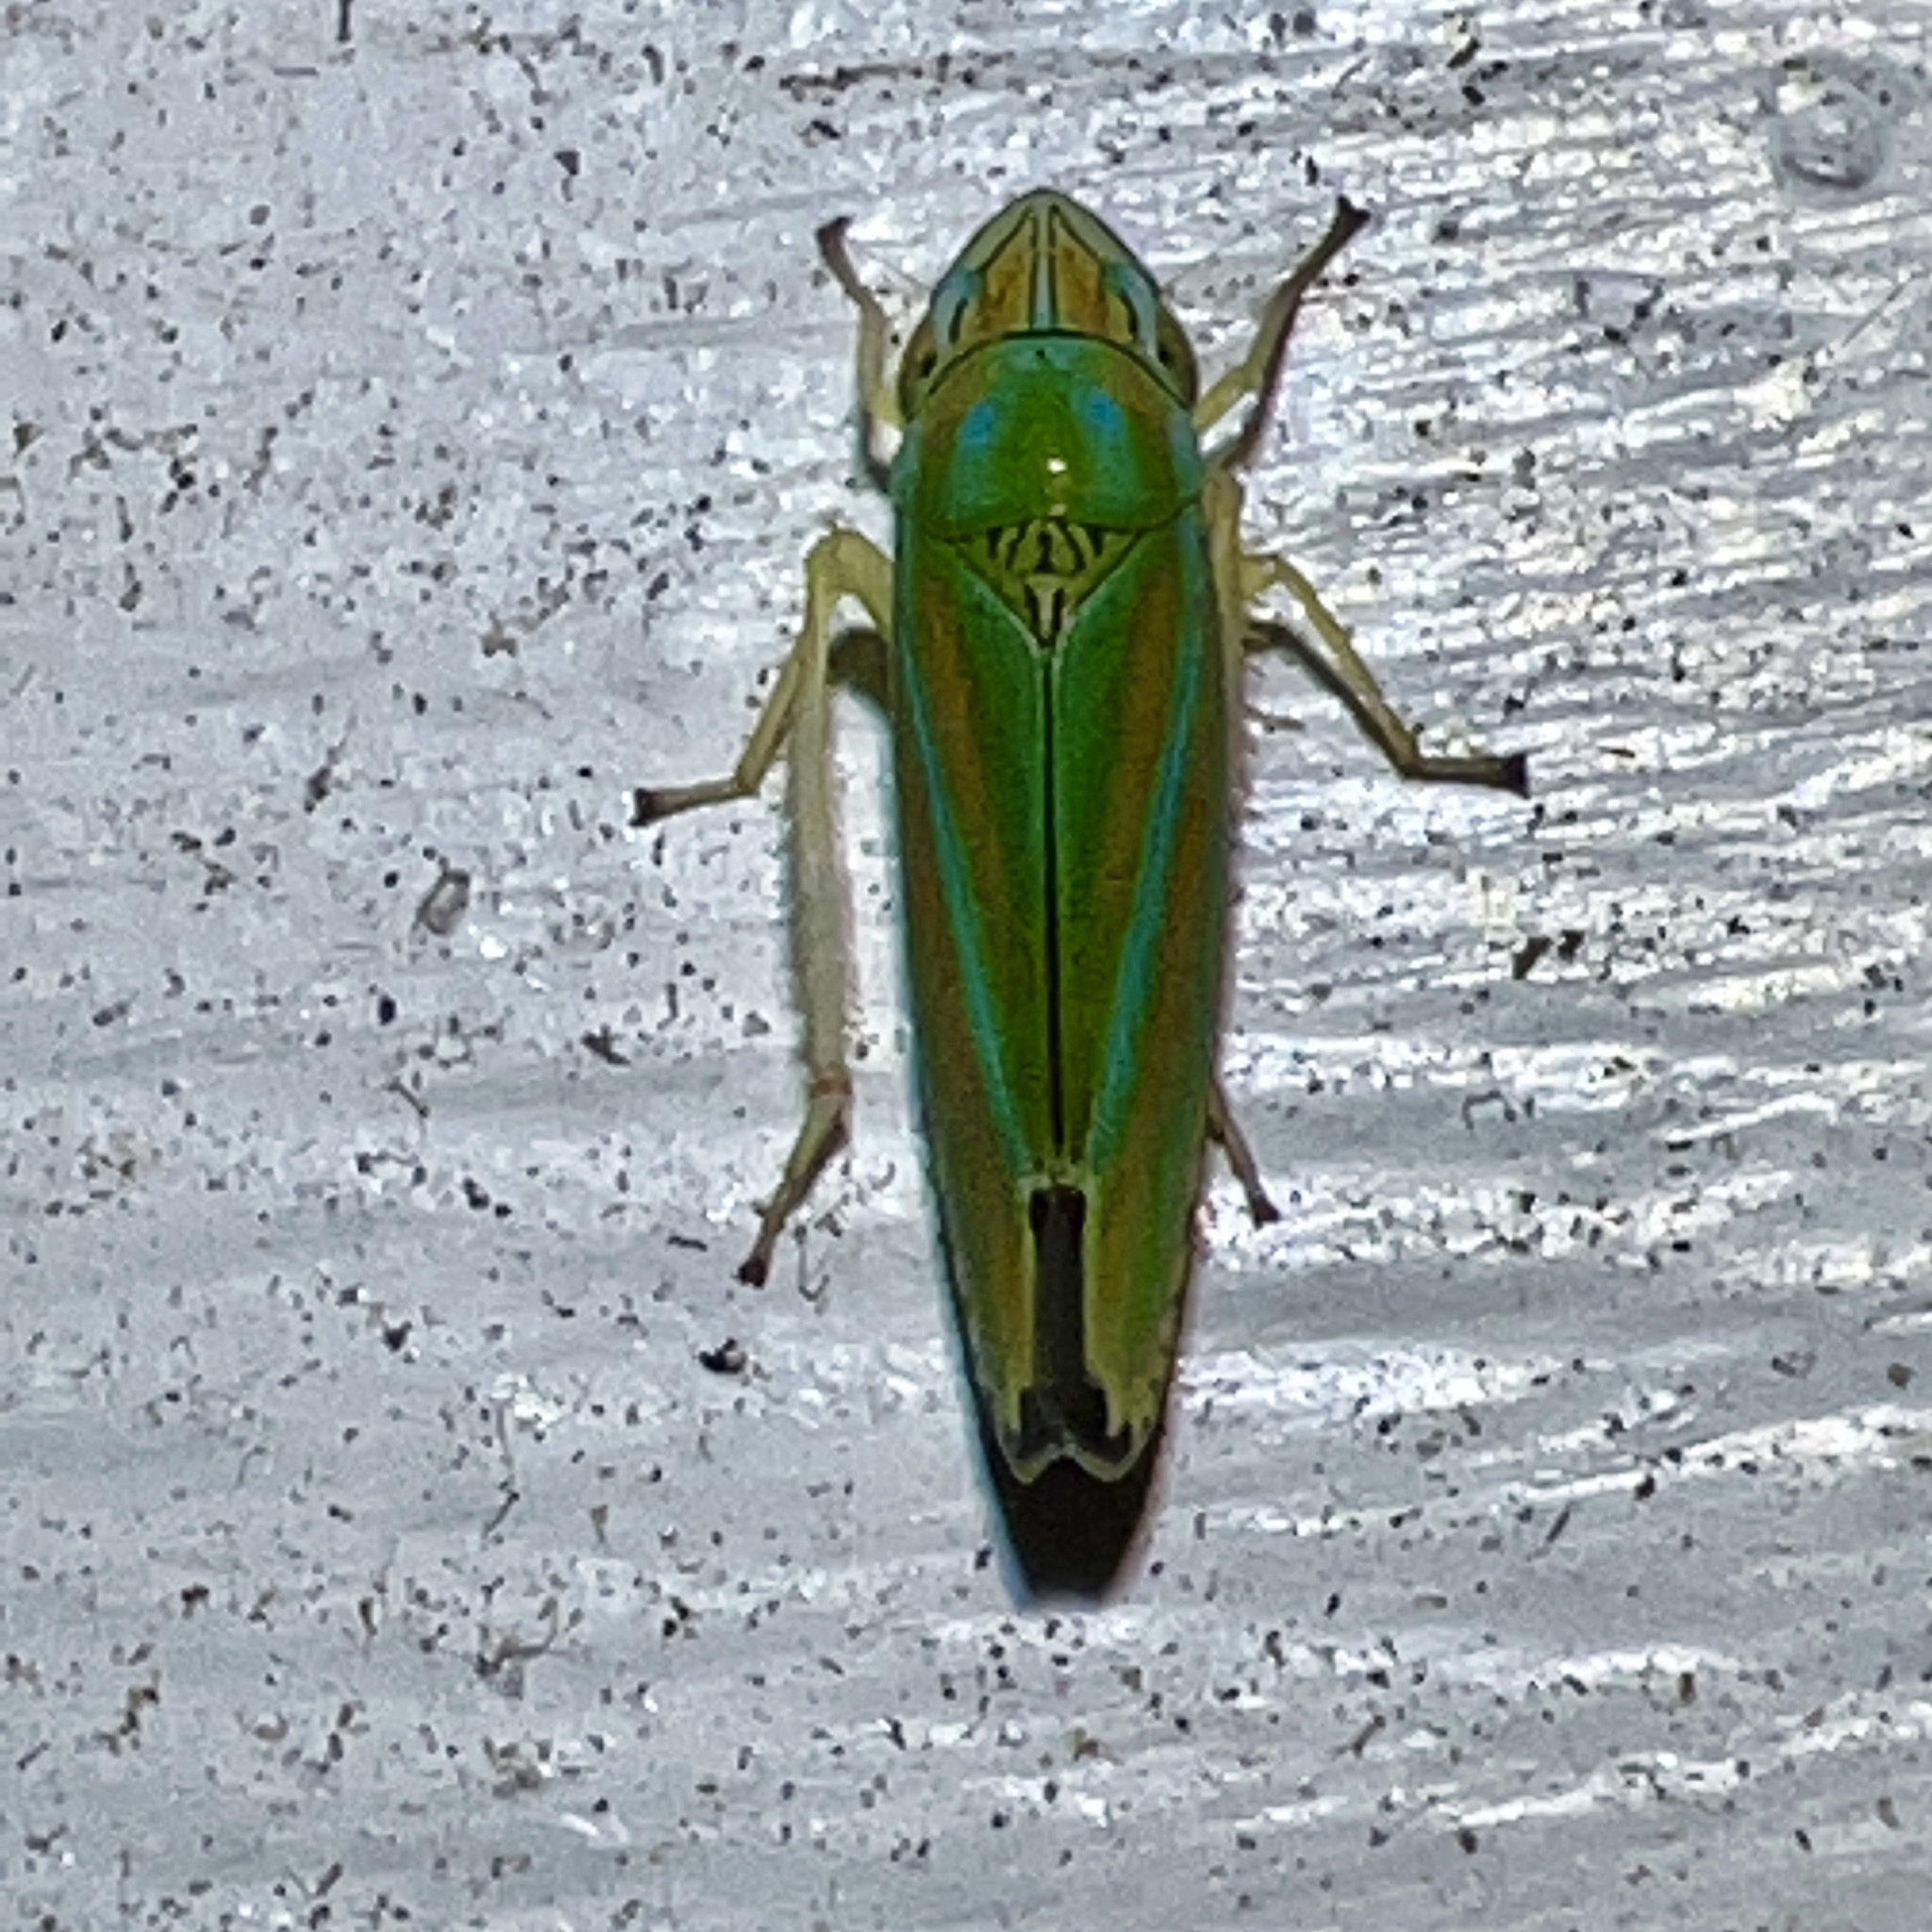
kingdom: Animalia
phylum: Arthropoda
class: Insecta
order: Hemiptera
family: Cicadellidae
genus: Graphocephala
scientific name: Graphocephala versuta
